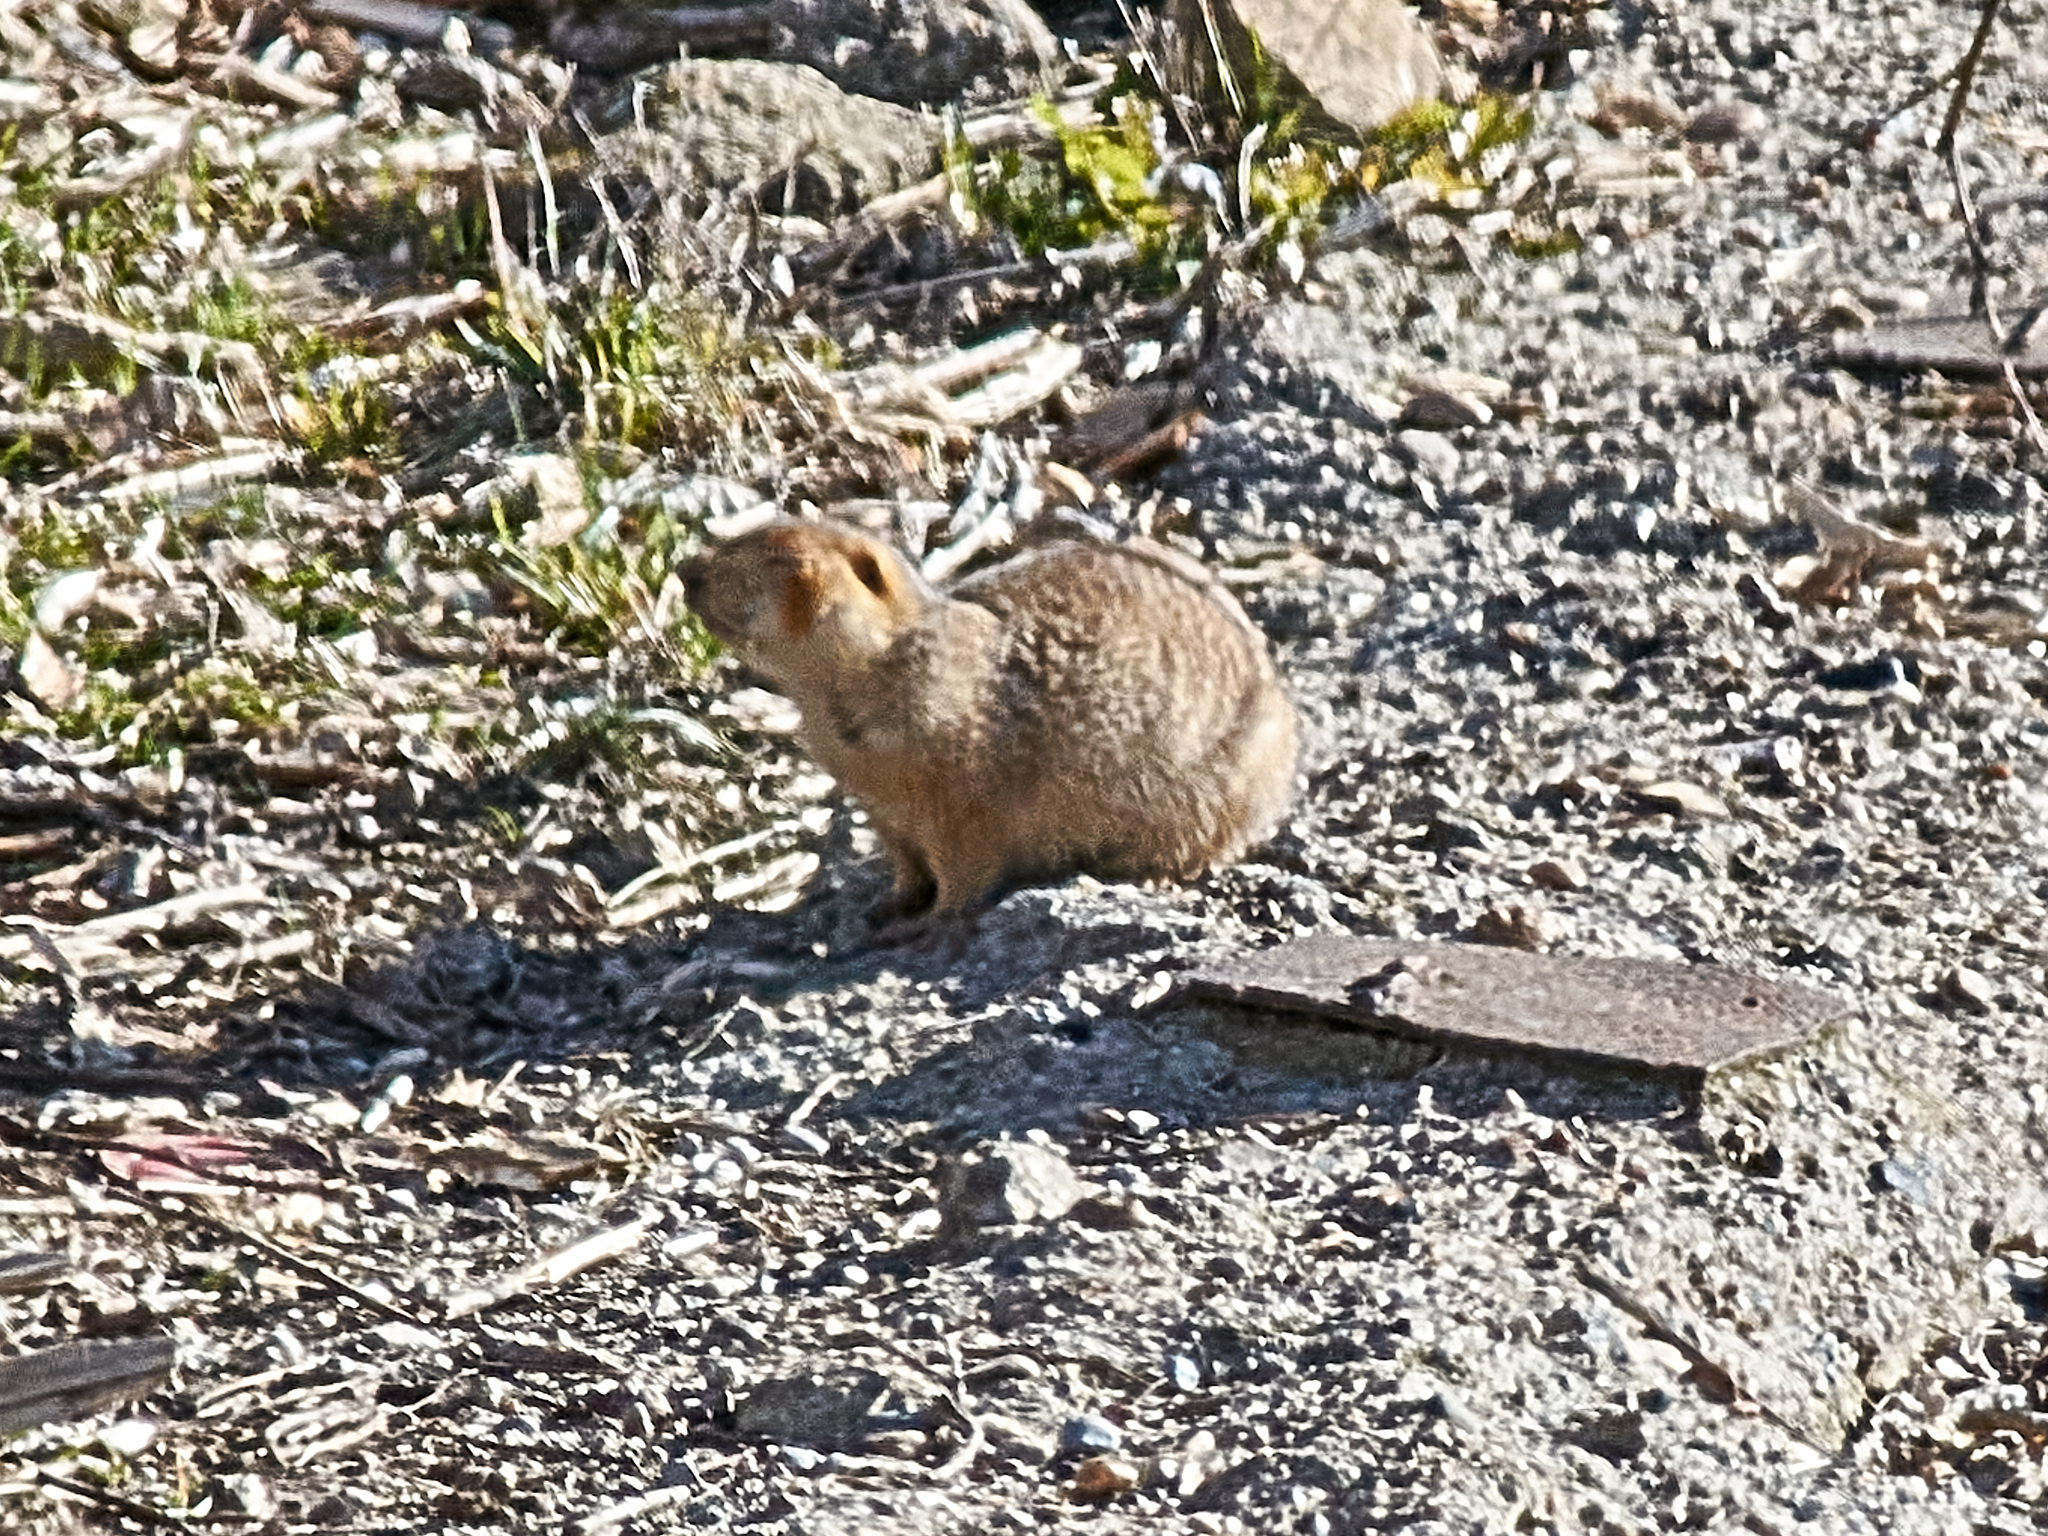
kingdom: Animalia
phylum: Chordata
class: Mammalia
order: Rodentia
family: Sciuridae
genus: Spermophilus
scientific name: Spermophilus major
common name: Russet ground squirrel
